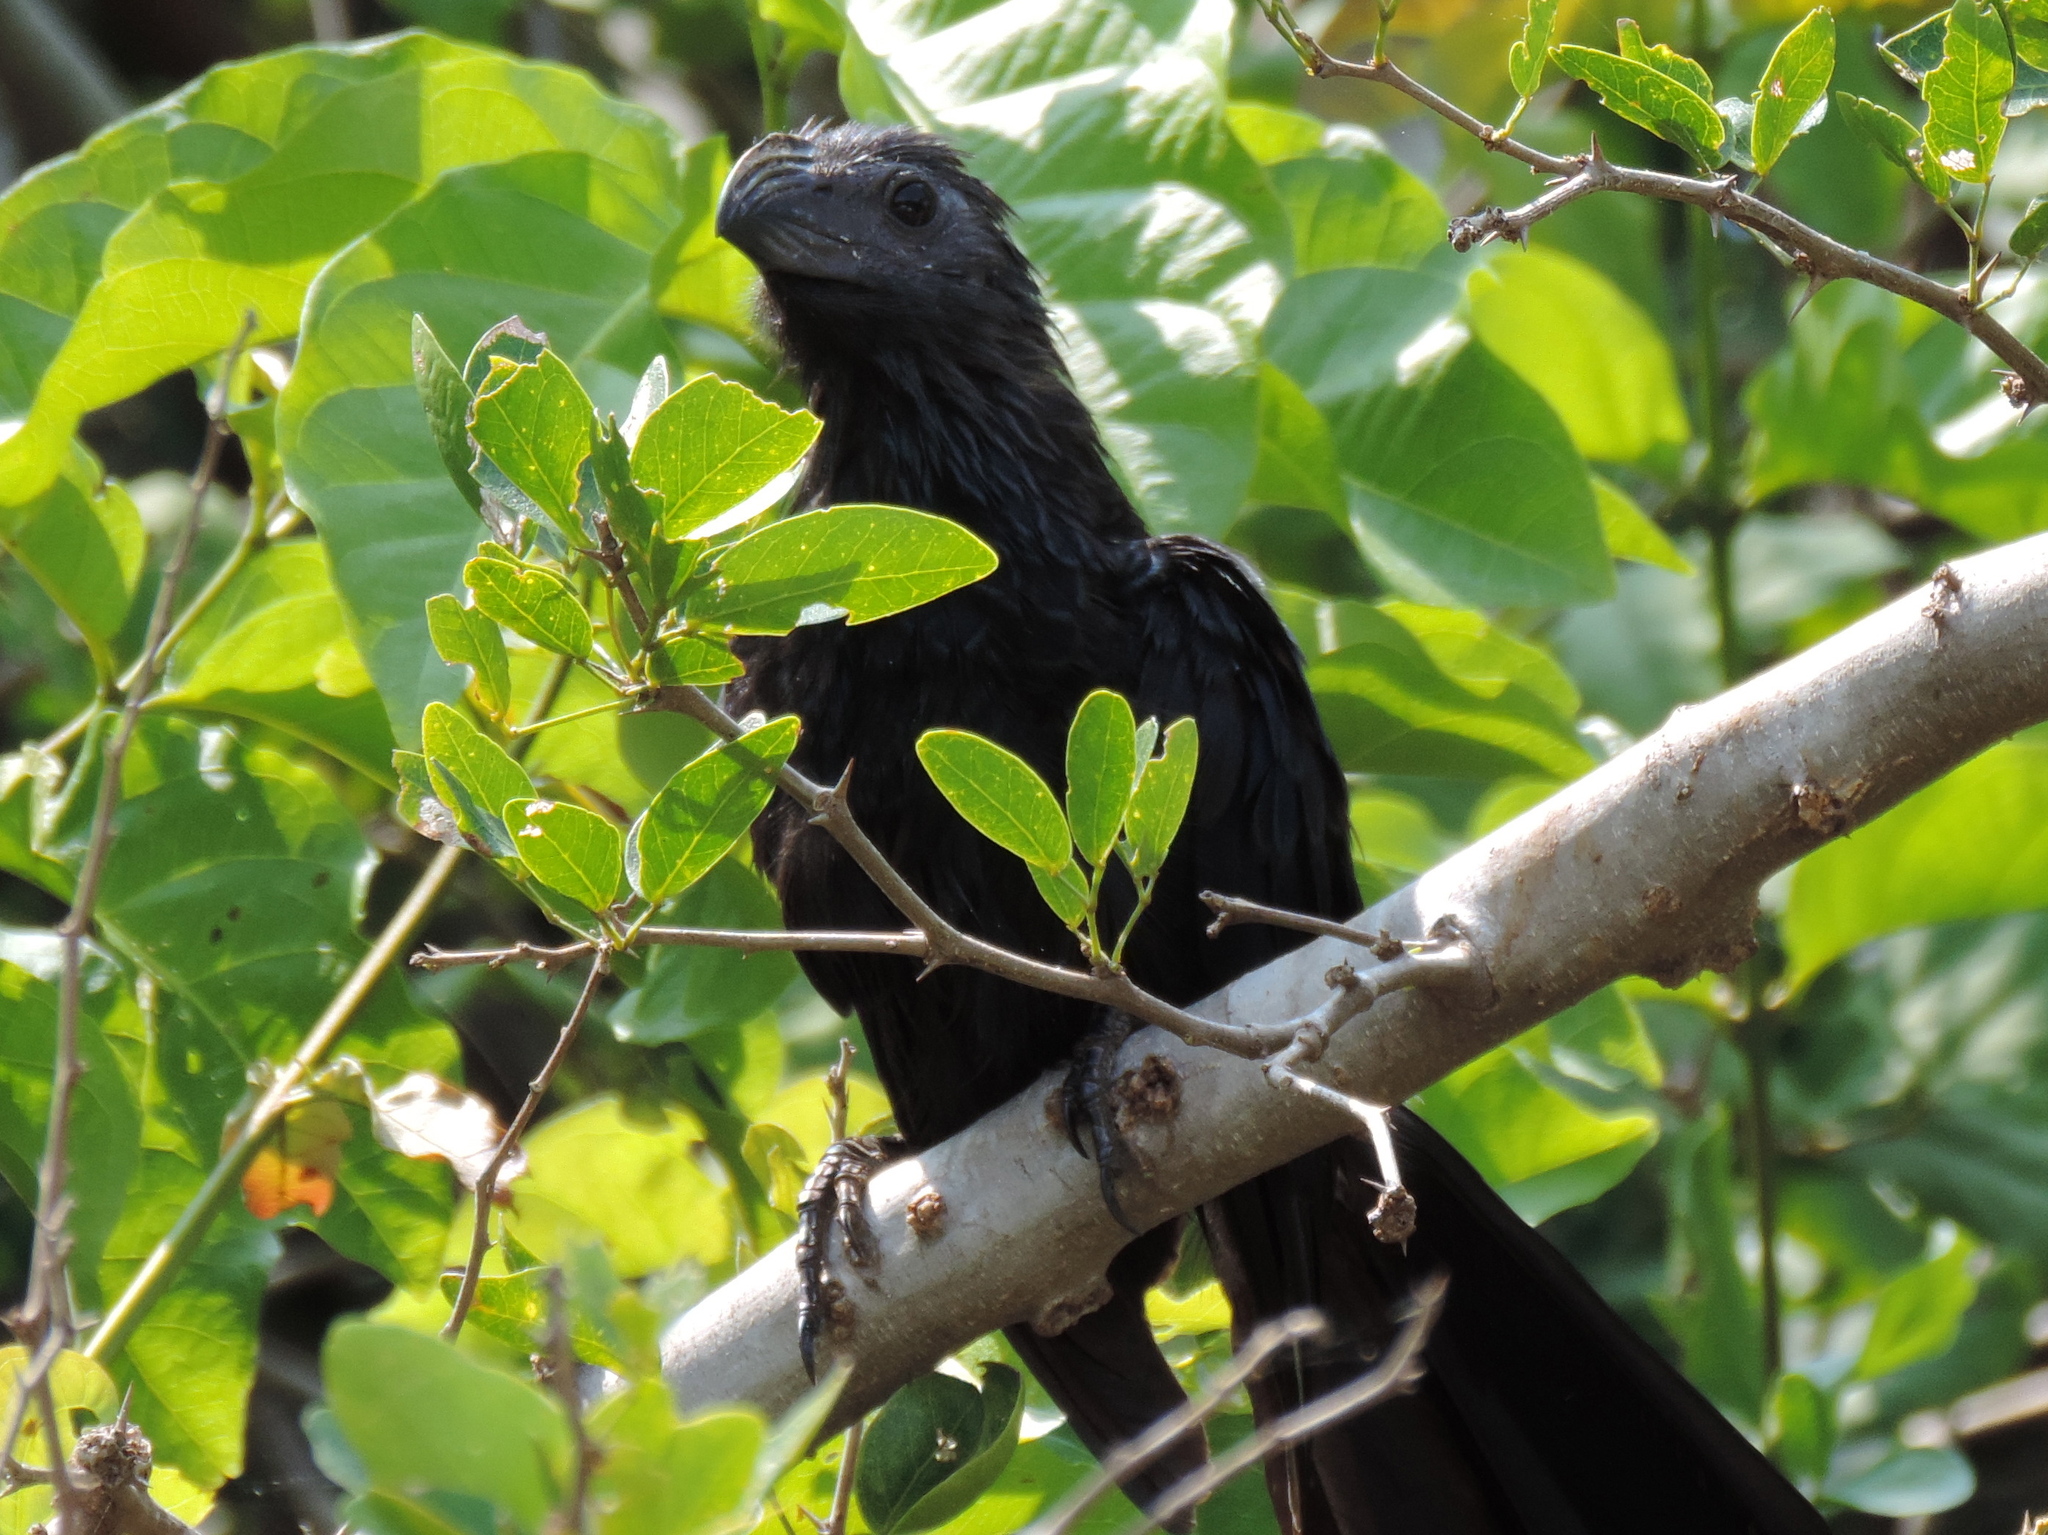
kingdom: Animalia
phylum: Chordata
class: Aves
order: Cuculiformes
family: Cuculidae
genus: Crotophaga
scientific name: Crotophaga sulcirostris
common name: Groove-billed ani
